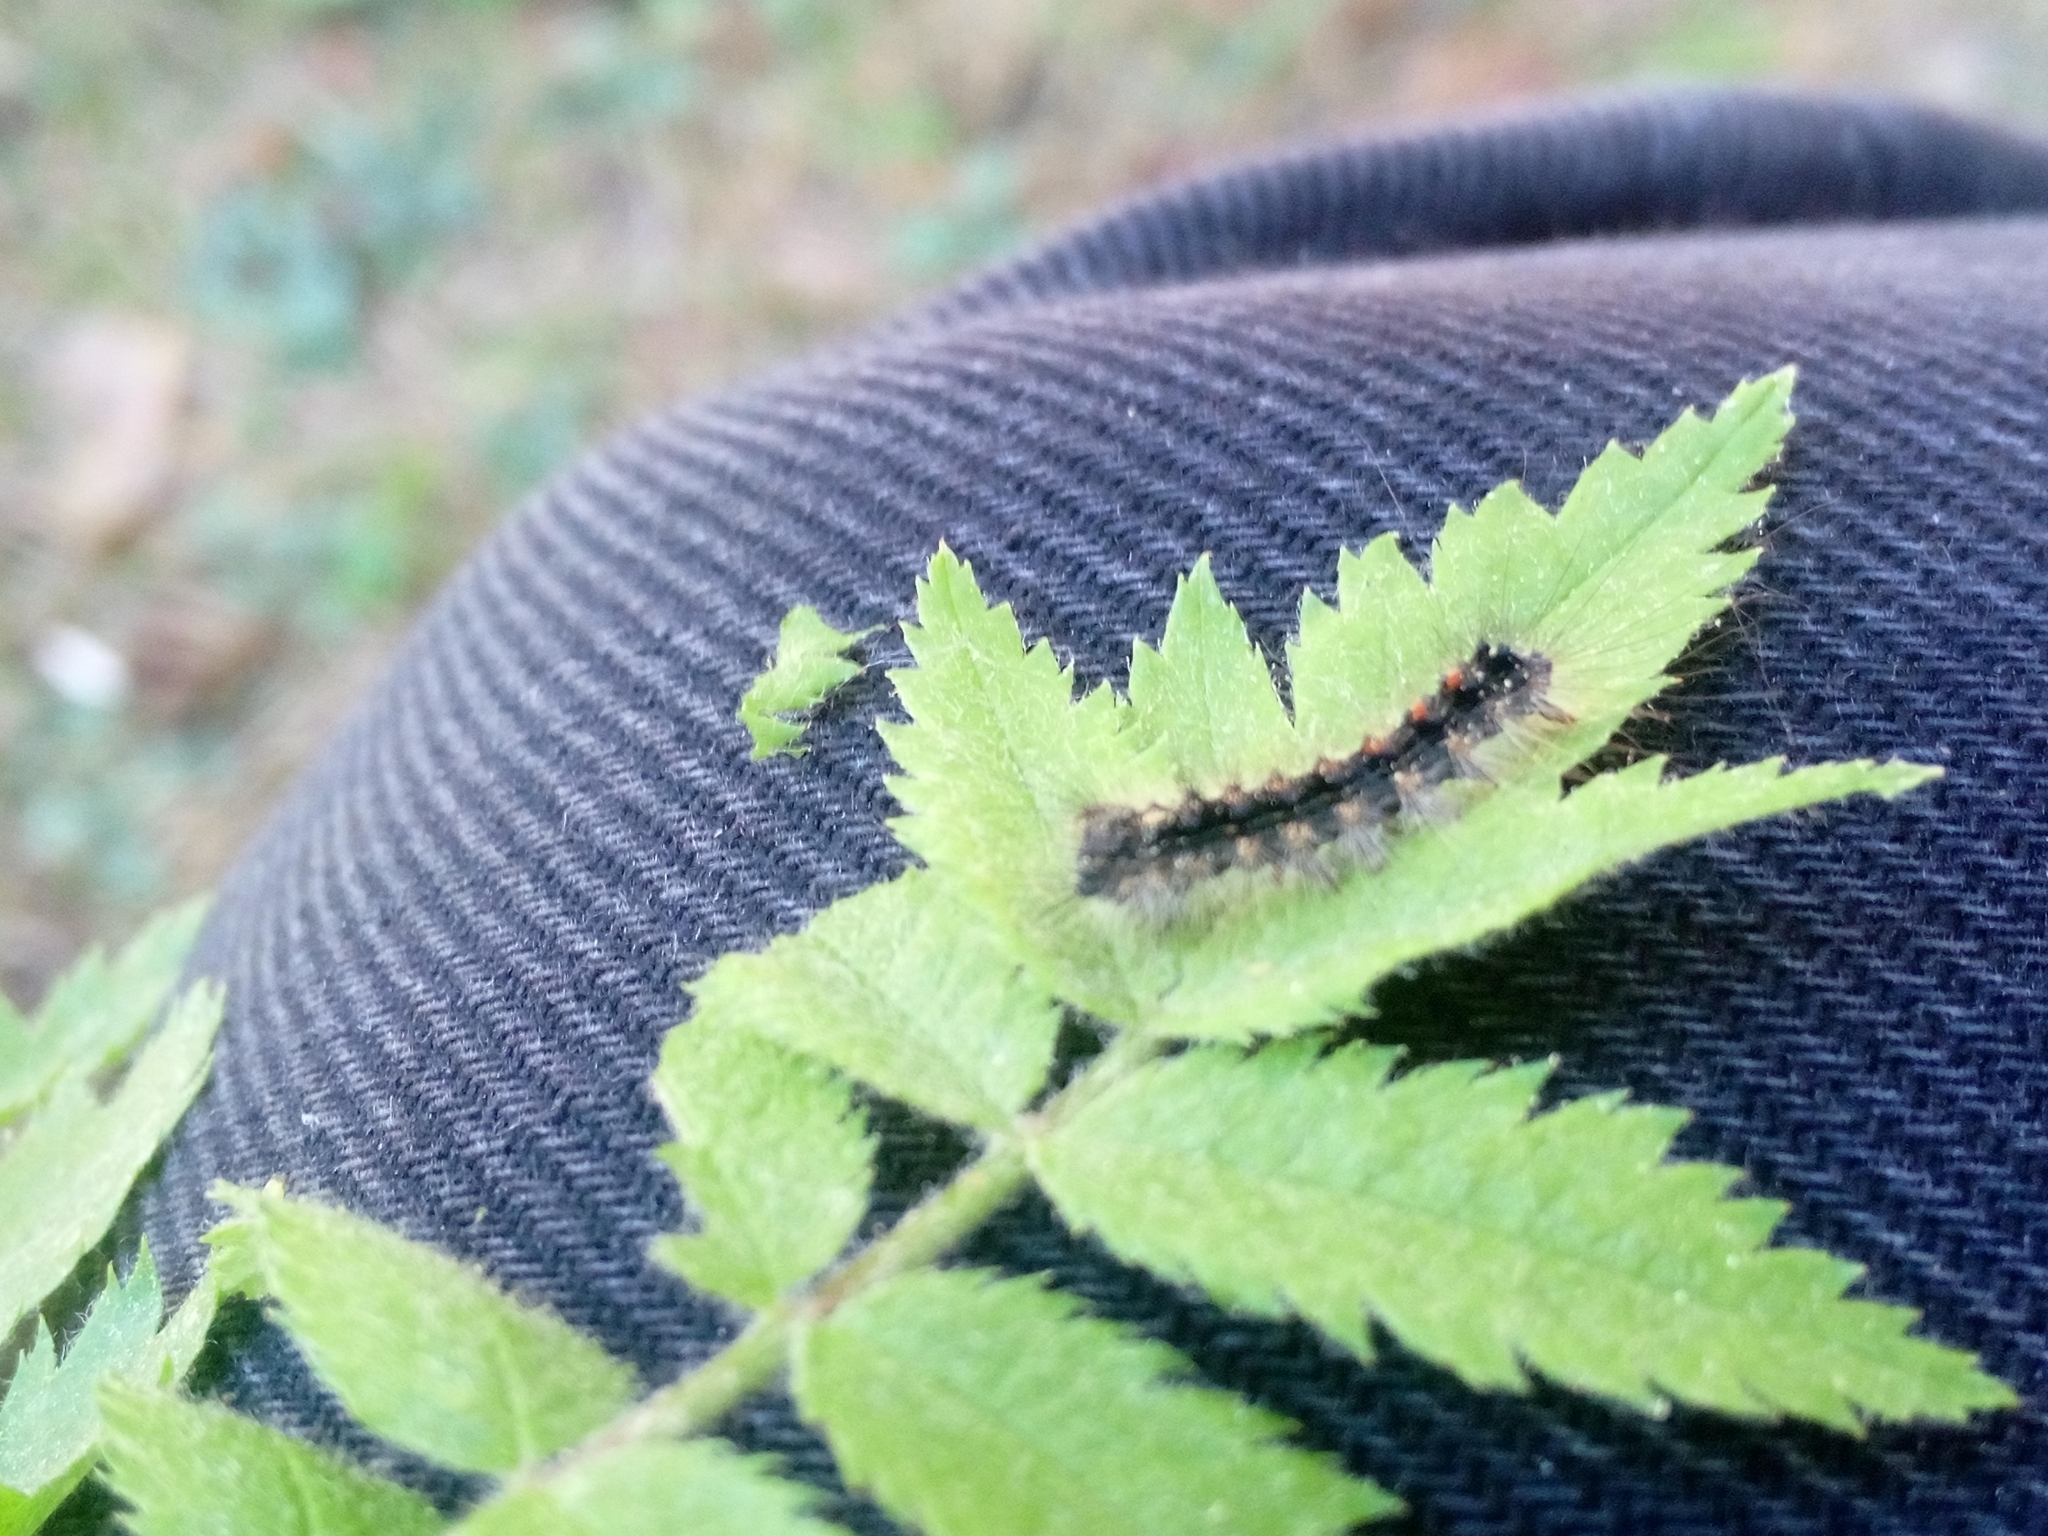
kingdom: Animalia
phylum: Arthropoda
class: Insecta
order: Lepidoptera
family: Erebidae
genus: Lymantria
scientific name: Lymantria dispar
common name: Gypsy moth
